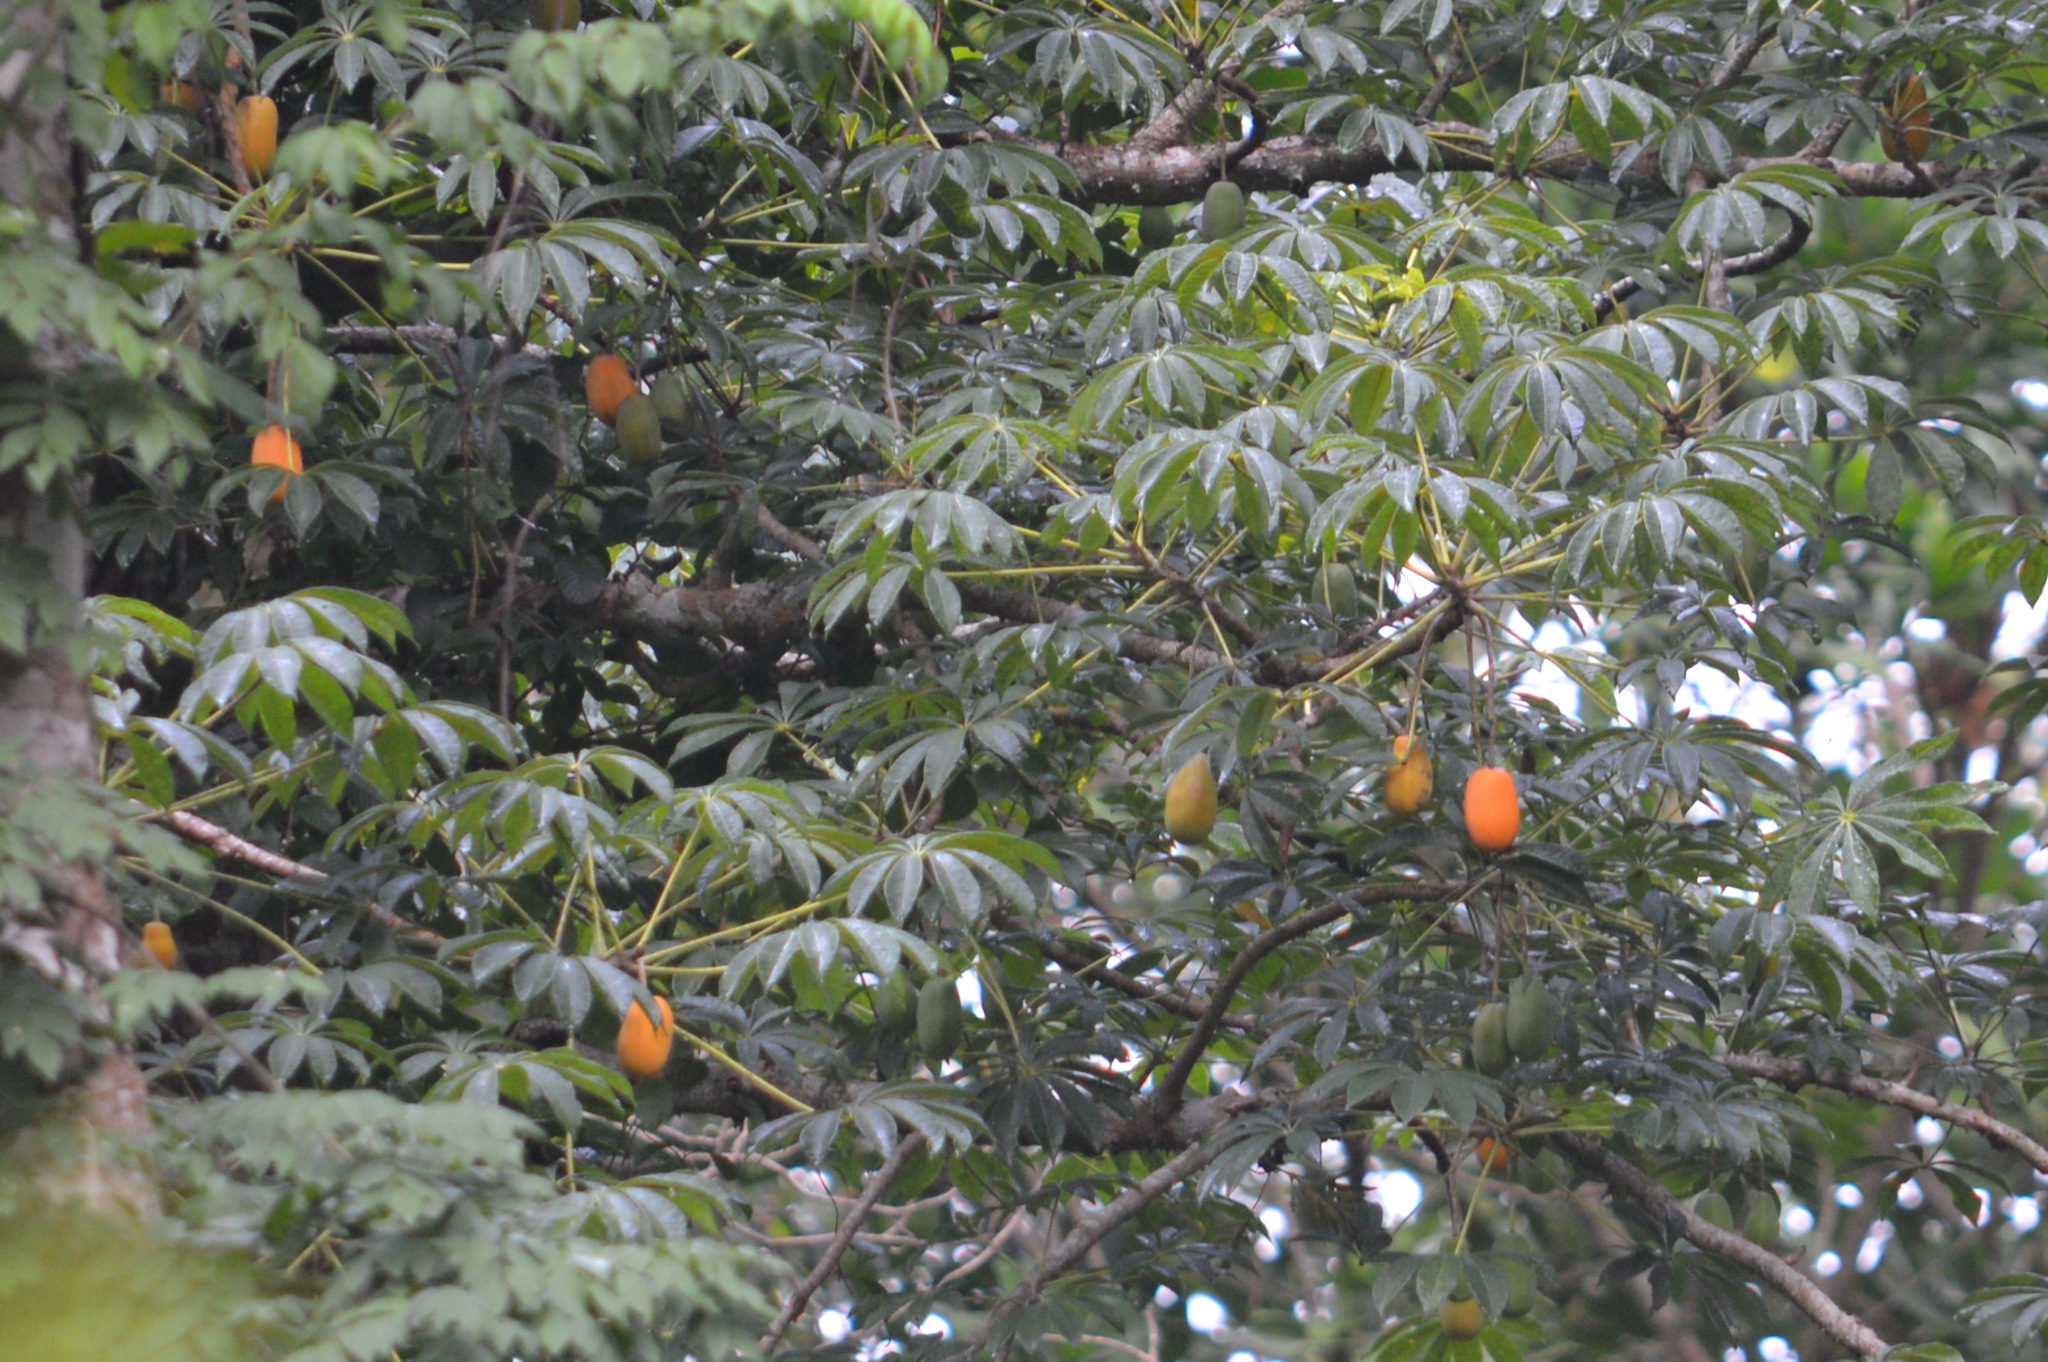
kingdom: Plantae
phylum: Tracheophyta
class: Magnoliopsida
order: Brassicales
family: Caricaceae
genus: Jacaratia
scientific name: Jacaratia spinosa
